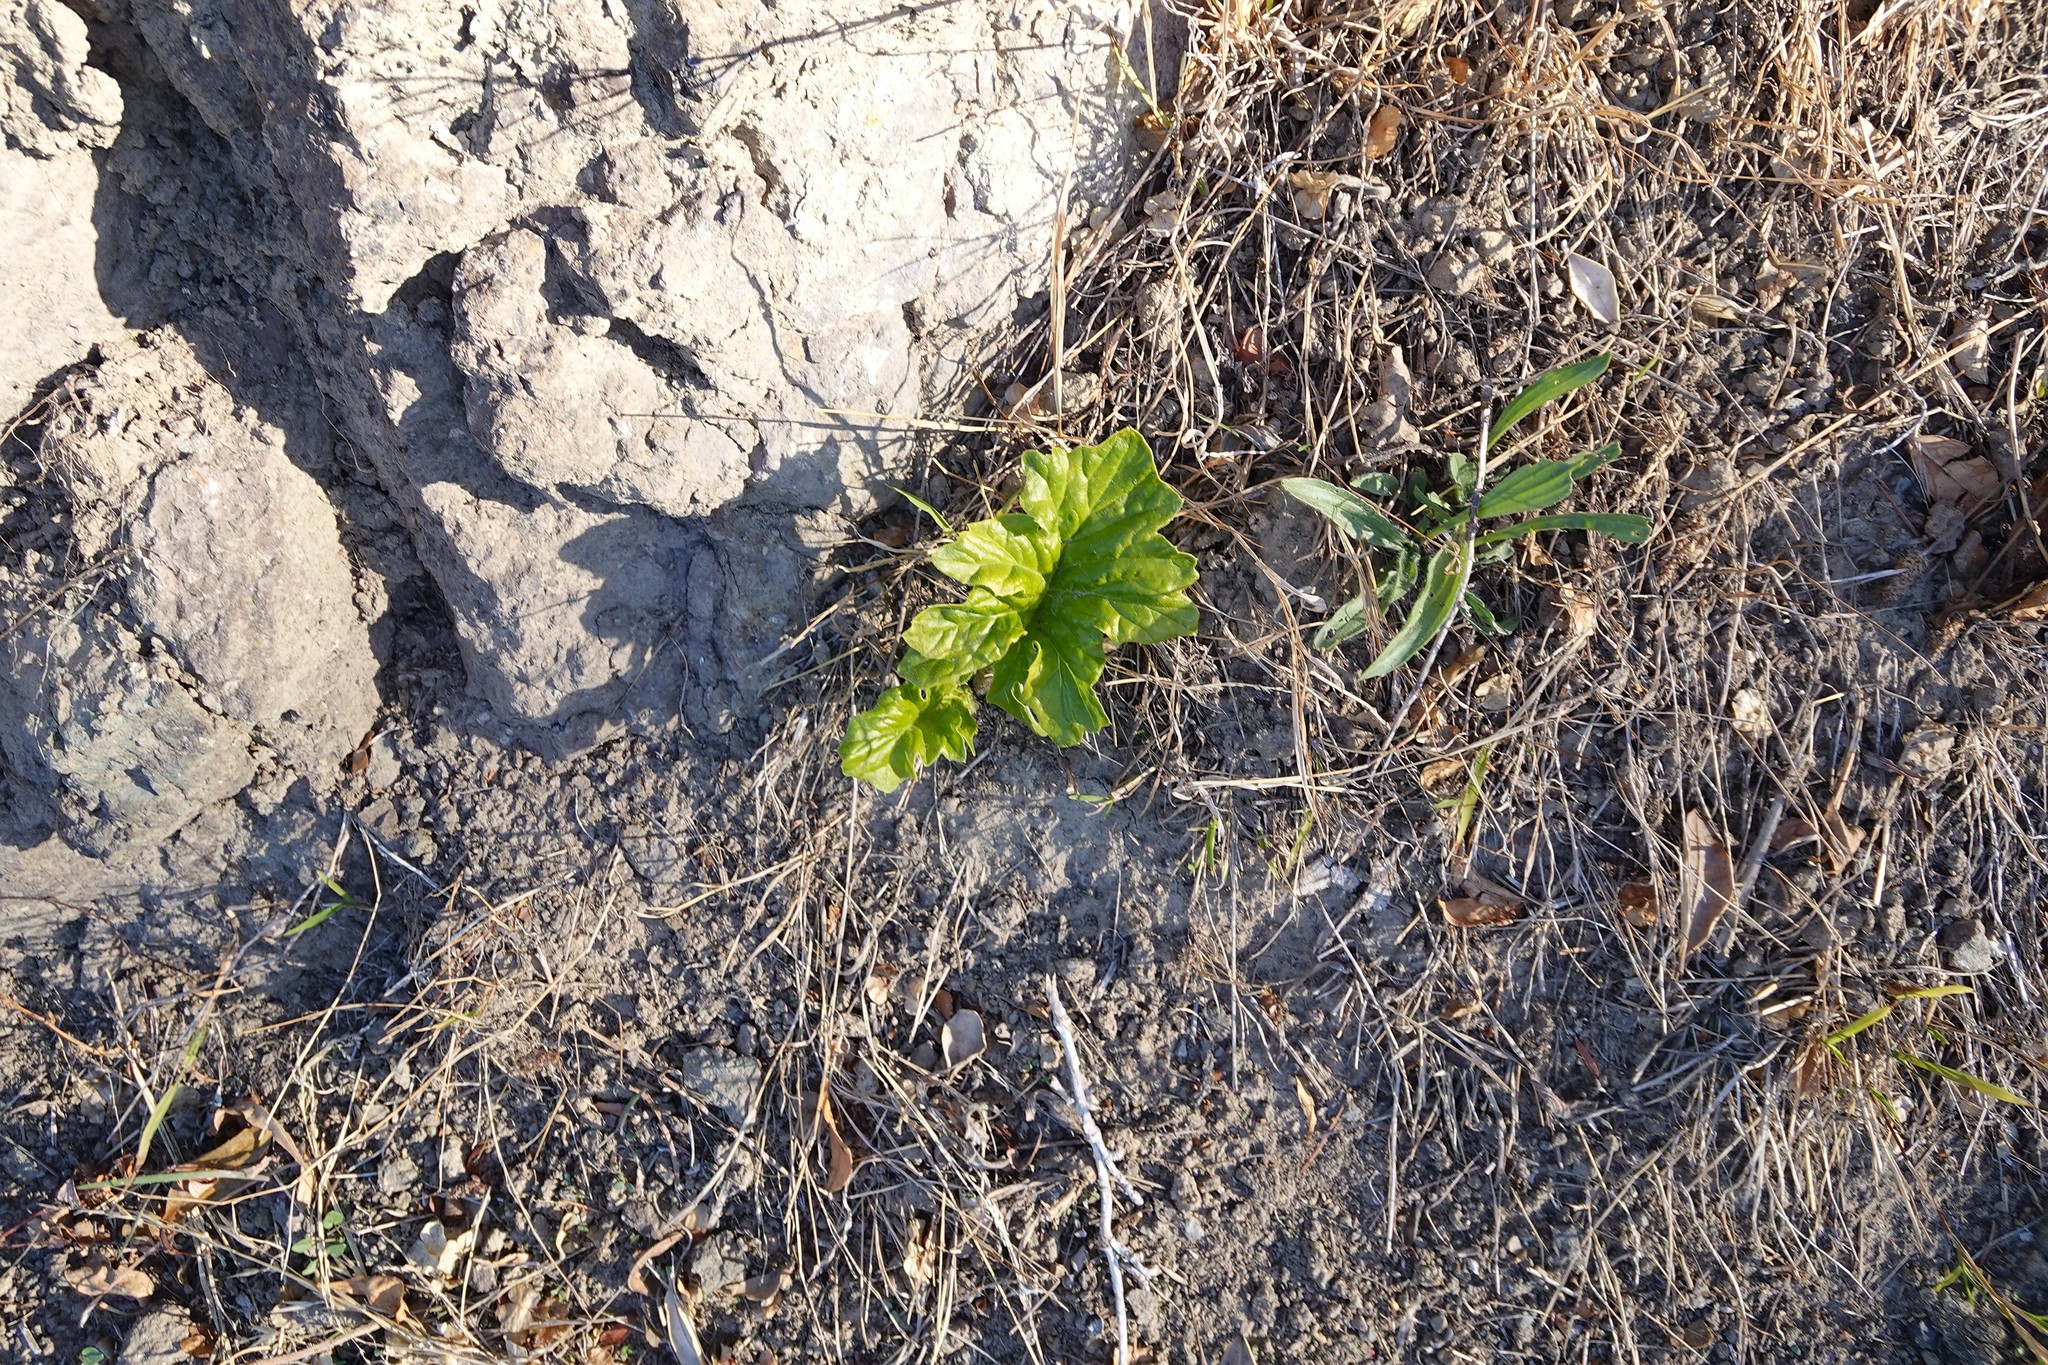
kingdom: Plantae
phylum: Tracheophyta
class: Magnoliopsida
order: Lamiales
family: Acanthaceae
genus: Acanthus
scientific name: Acanthus mollis
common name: Bear's-breech
